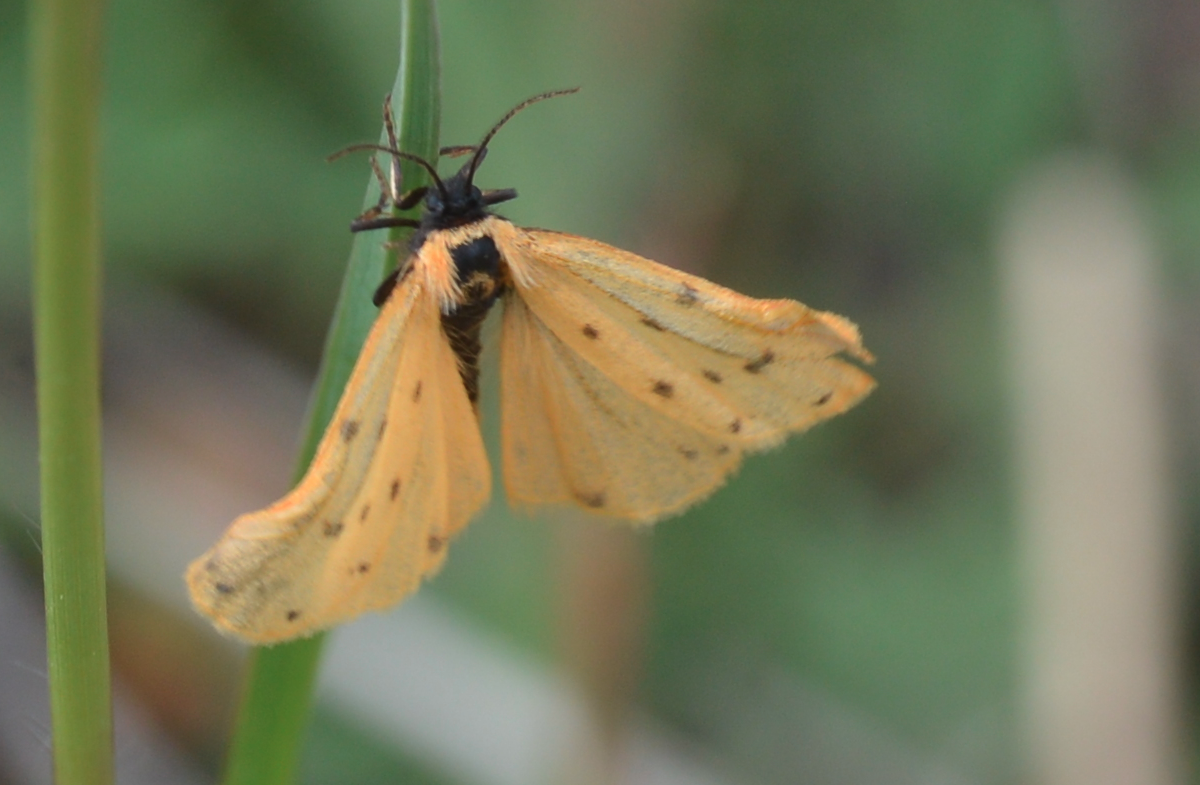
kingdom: Animalia
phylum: Arthropoda
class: Insecta
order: Lepidoptera
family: Erebidae
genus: Setina
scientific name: Setina irrorella
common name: Dew moth
